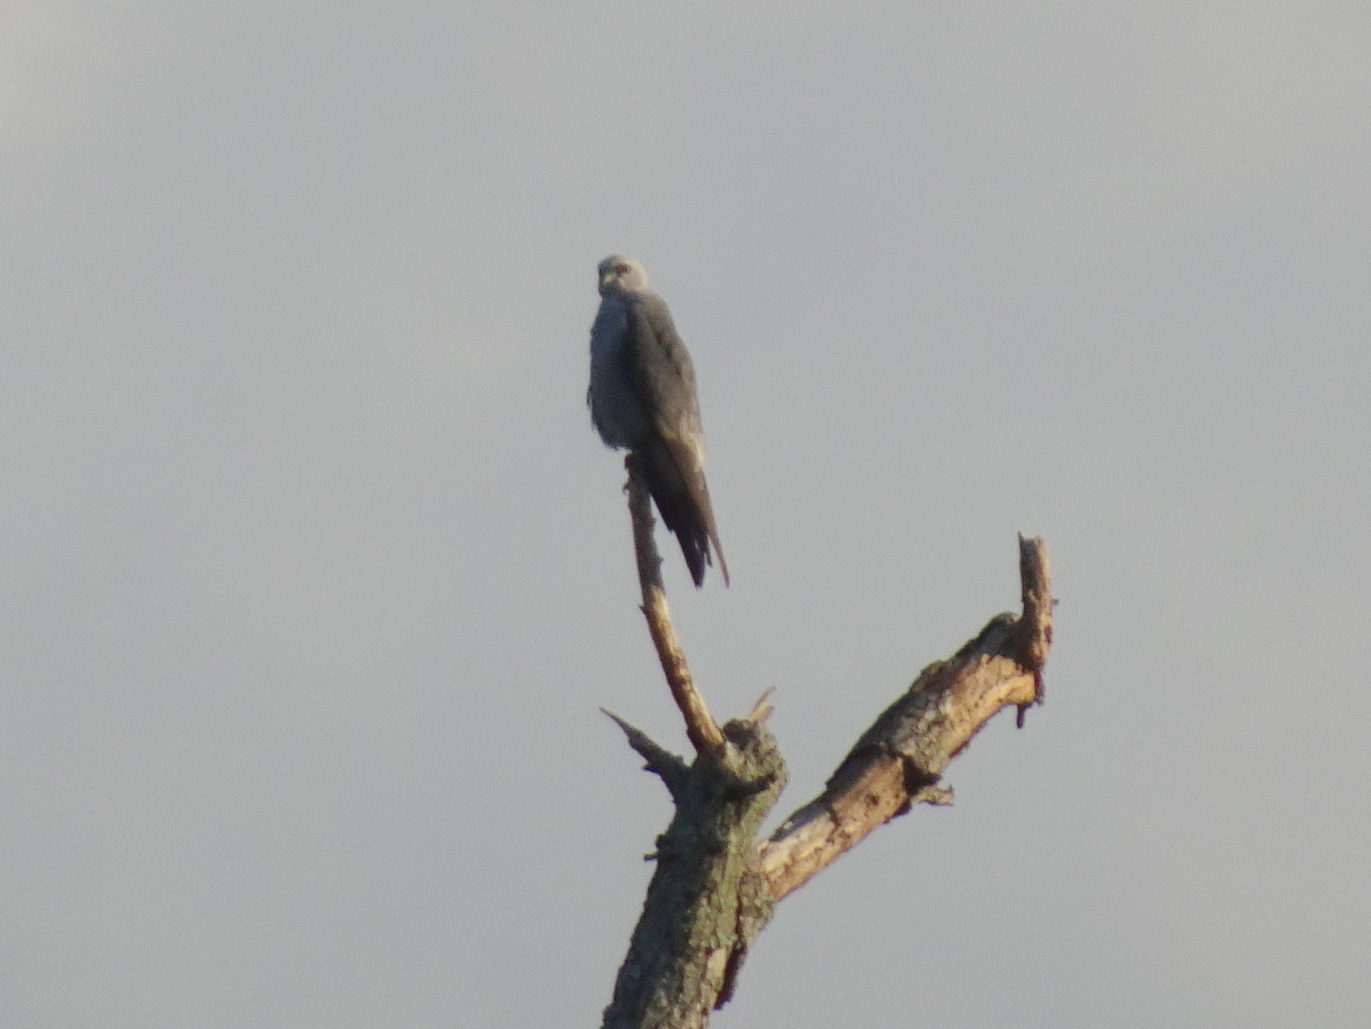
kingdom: Animalia
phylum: Chordata
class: Aves
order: Accipitriformes
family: Accipitridae
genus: Ictinia
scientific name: Ictinia mississippiensis
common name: Mississippi kite
